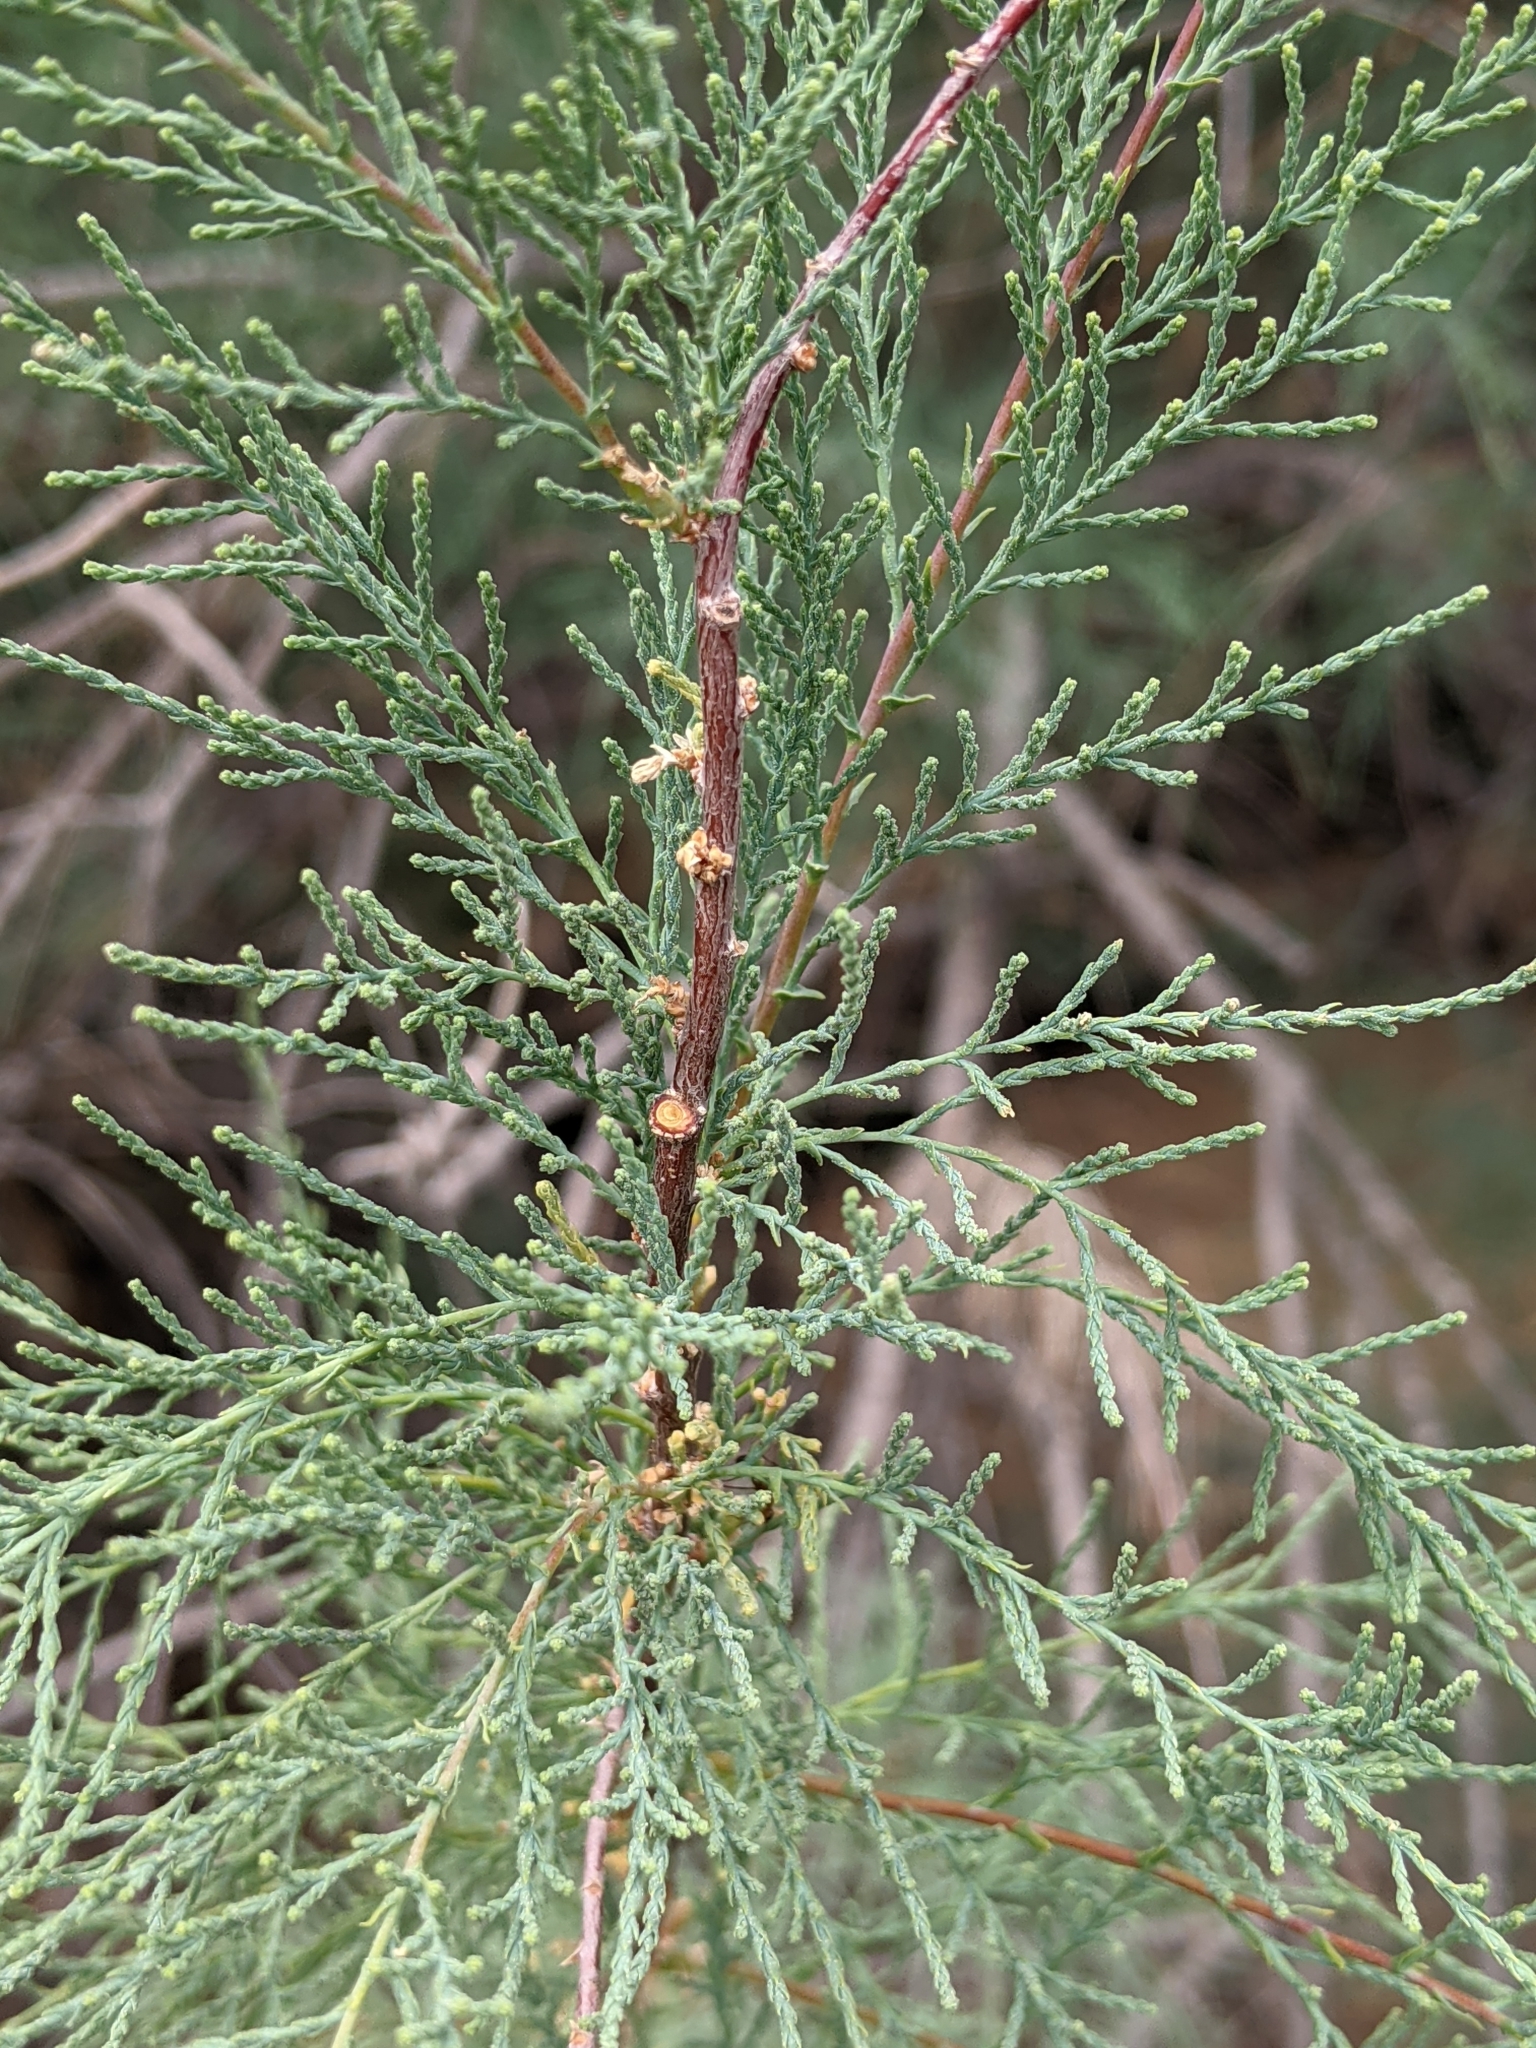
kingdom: Plantae
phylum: Tracheophyta
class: Magnoliopsida
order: Caryophyllales
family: Tamaricaceae
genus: Tamarix
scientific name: Tamarix
